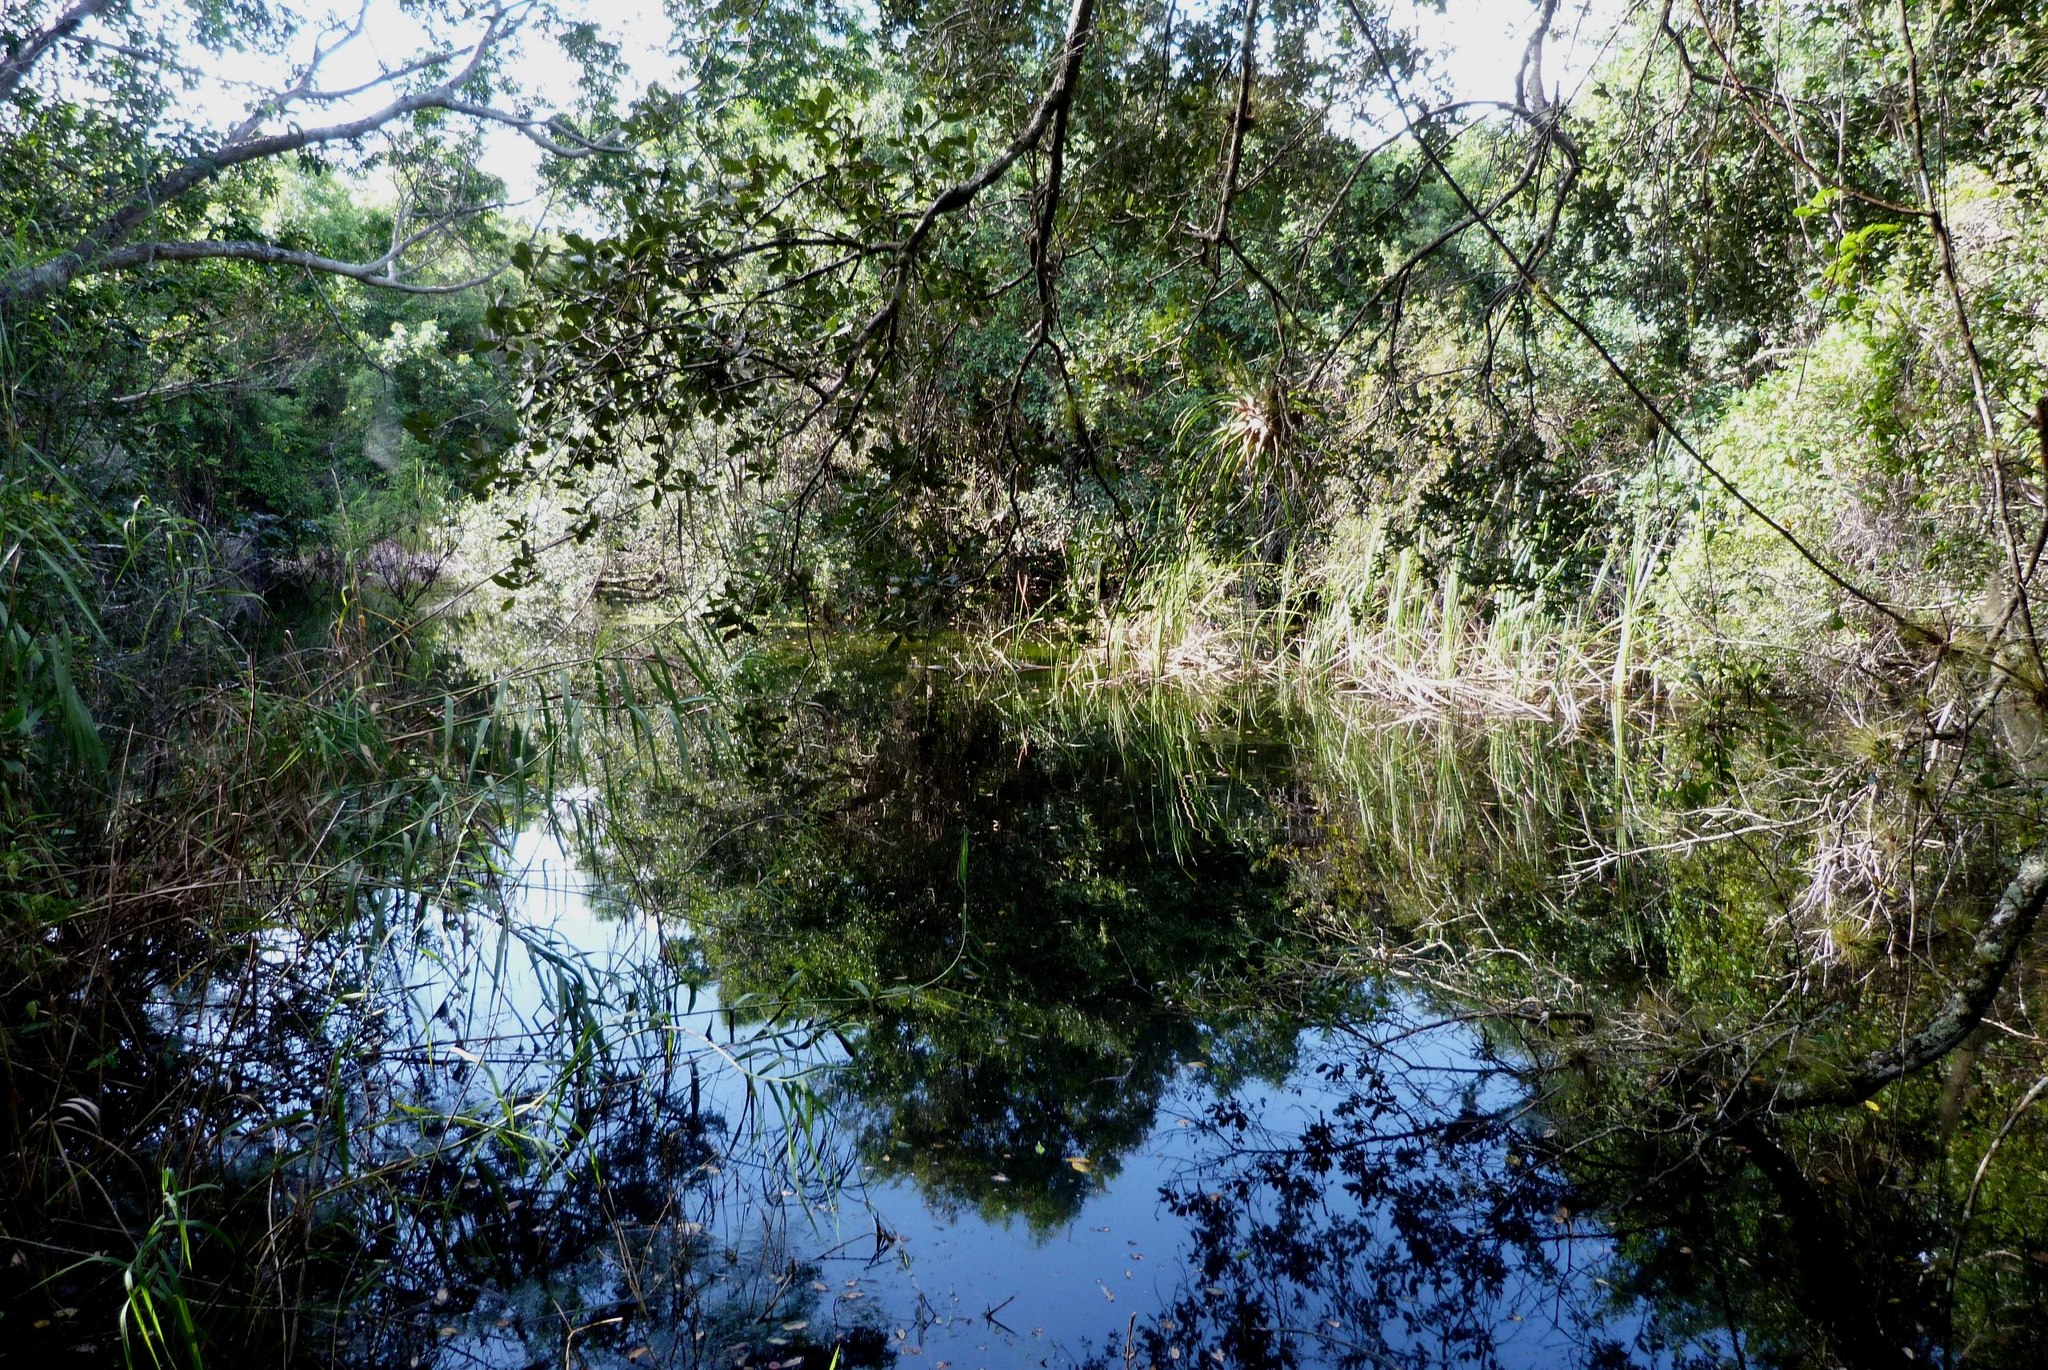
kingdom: Animalia
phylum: Chordata
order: Perciformes
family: Centrarchidae
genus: Lepomis
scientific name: Lepomis punctatus
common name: Spotted sunfish
